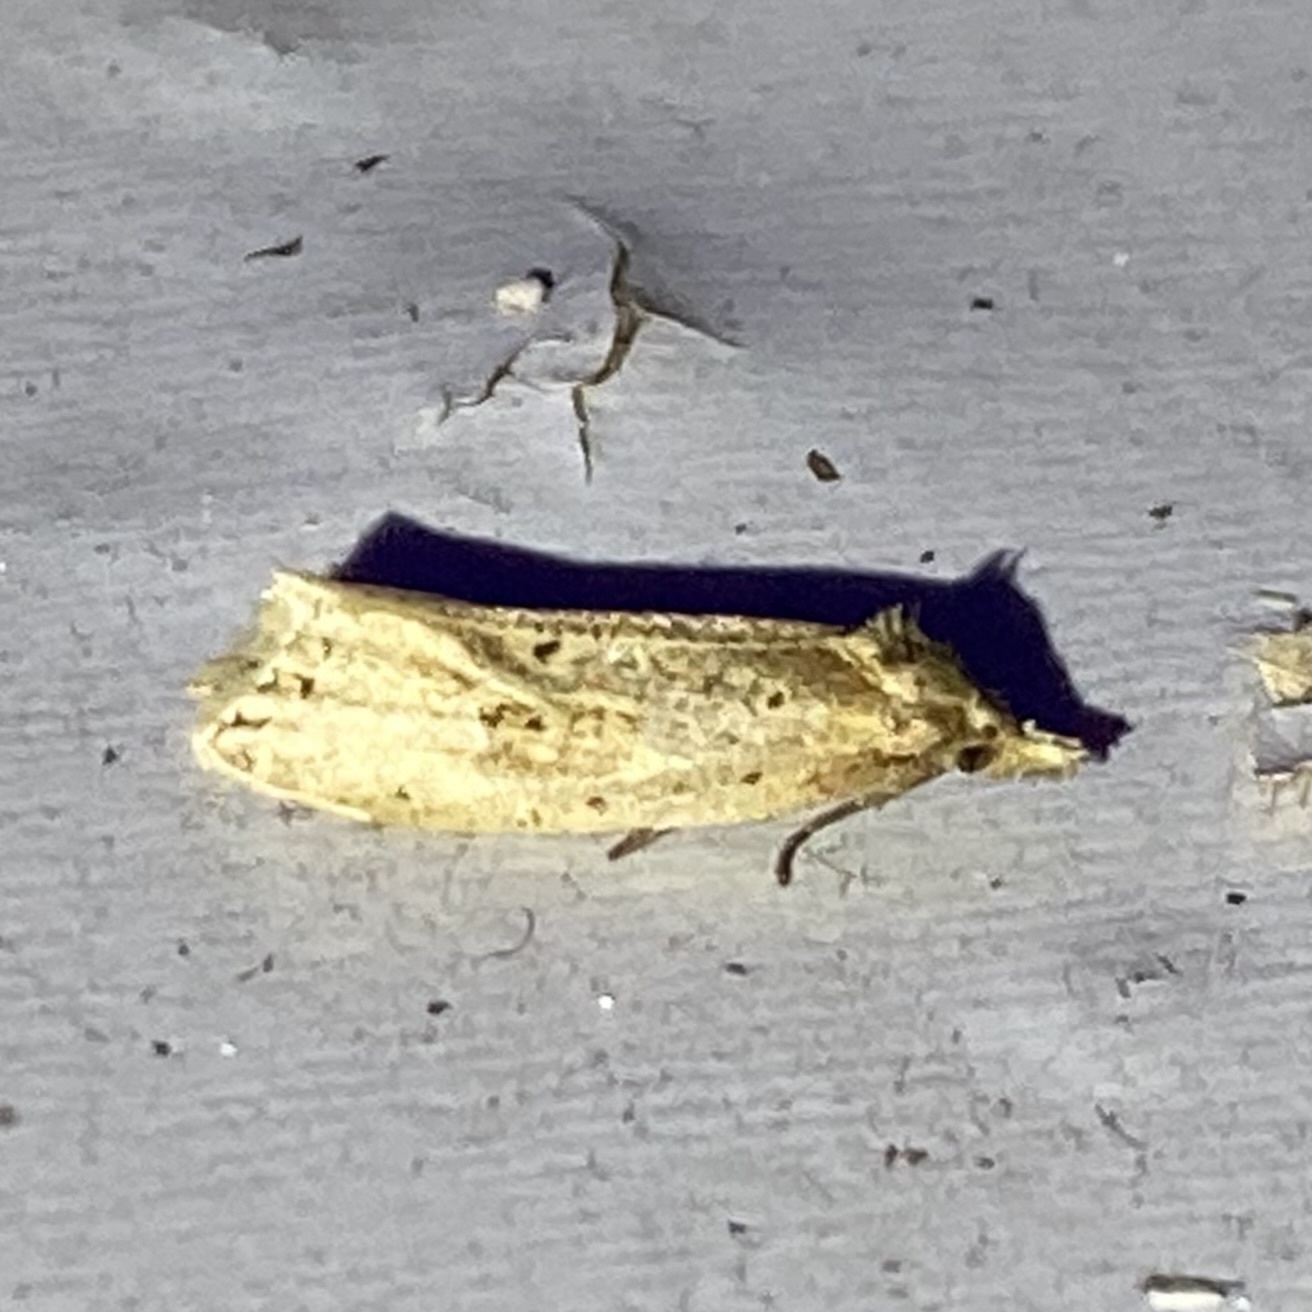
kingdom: Animalia
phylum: Arthropoda
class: Insecta
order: Lepidoptera
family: Tortricidae
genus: Aethes
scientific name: Aethes atomosana
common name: Two-spotted aethes
